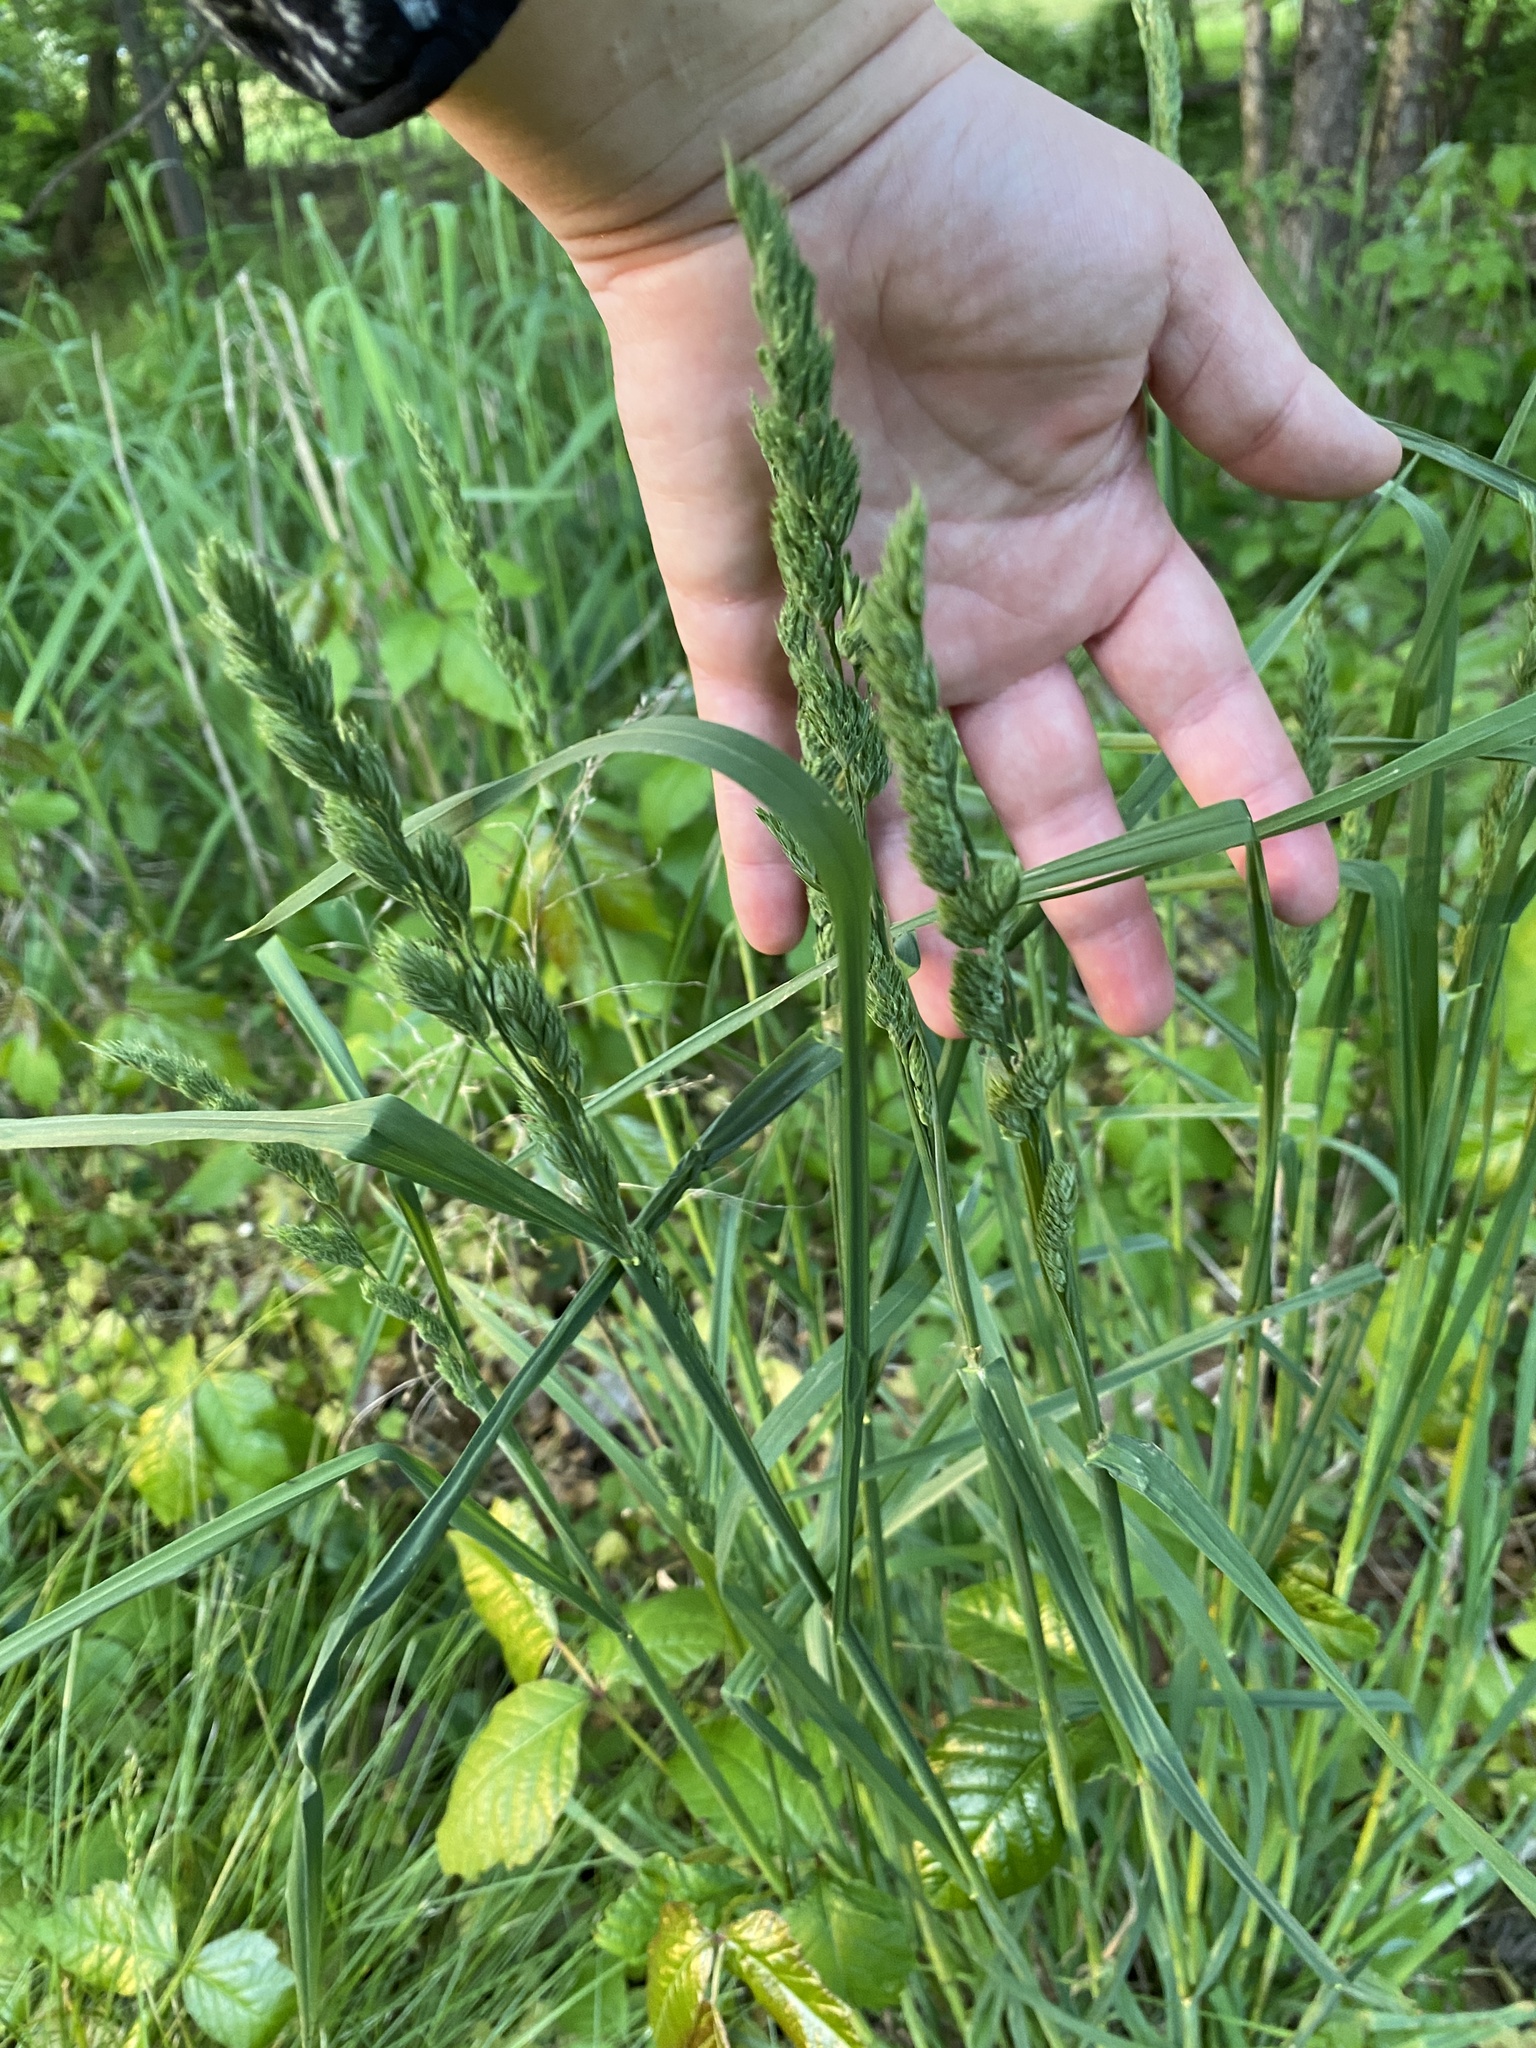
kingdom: Plantae
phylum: Tracheophyta
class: Liliopsida
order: Poales
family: Poaceae
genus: Dactylis
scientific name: Dactylis glomerata
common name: Orchardgrass
